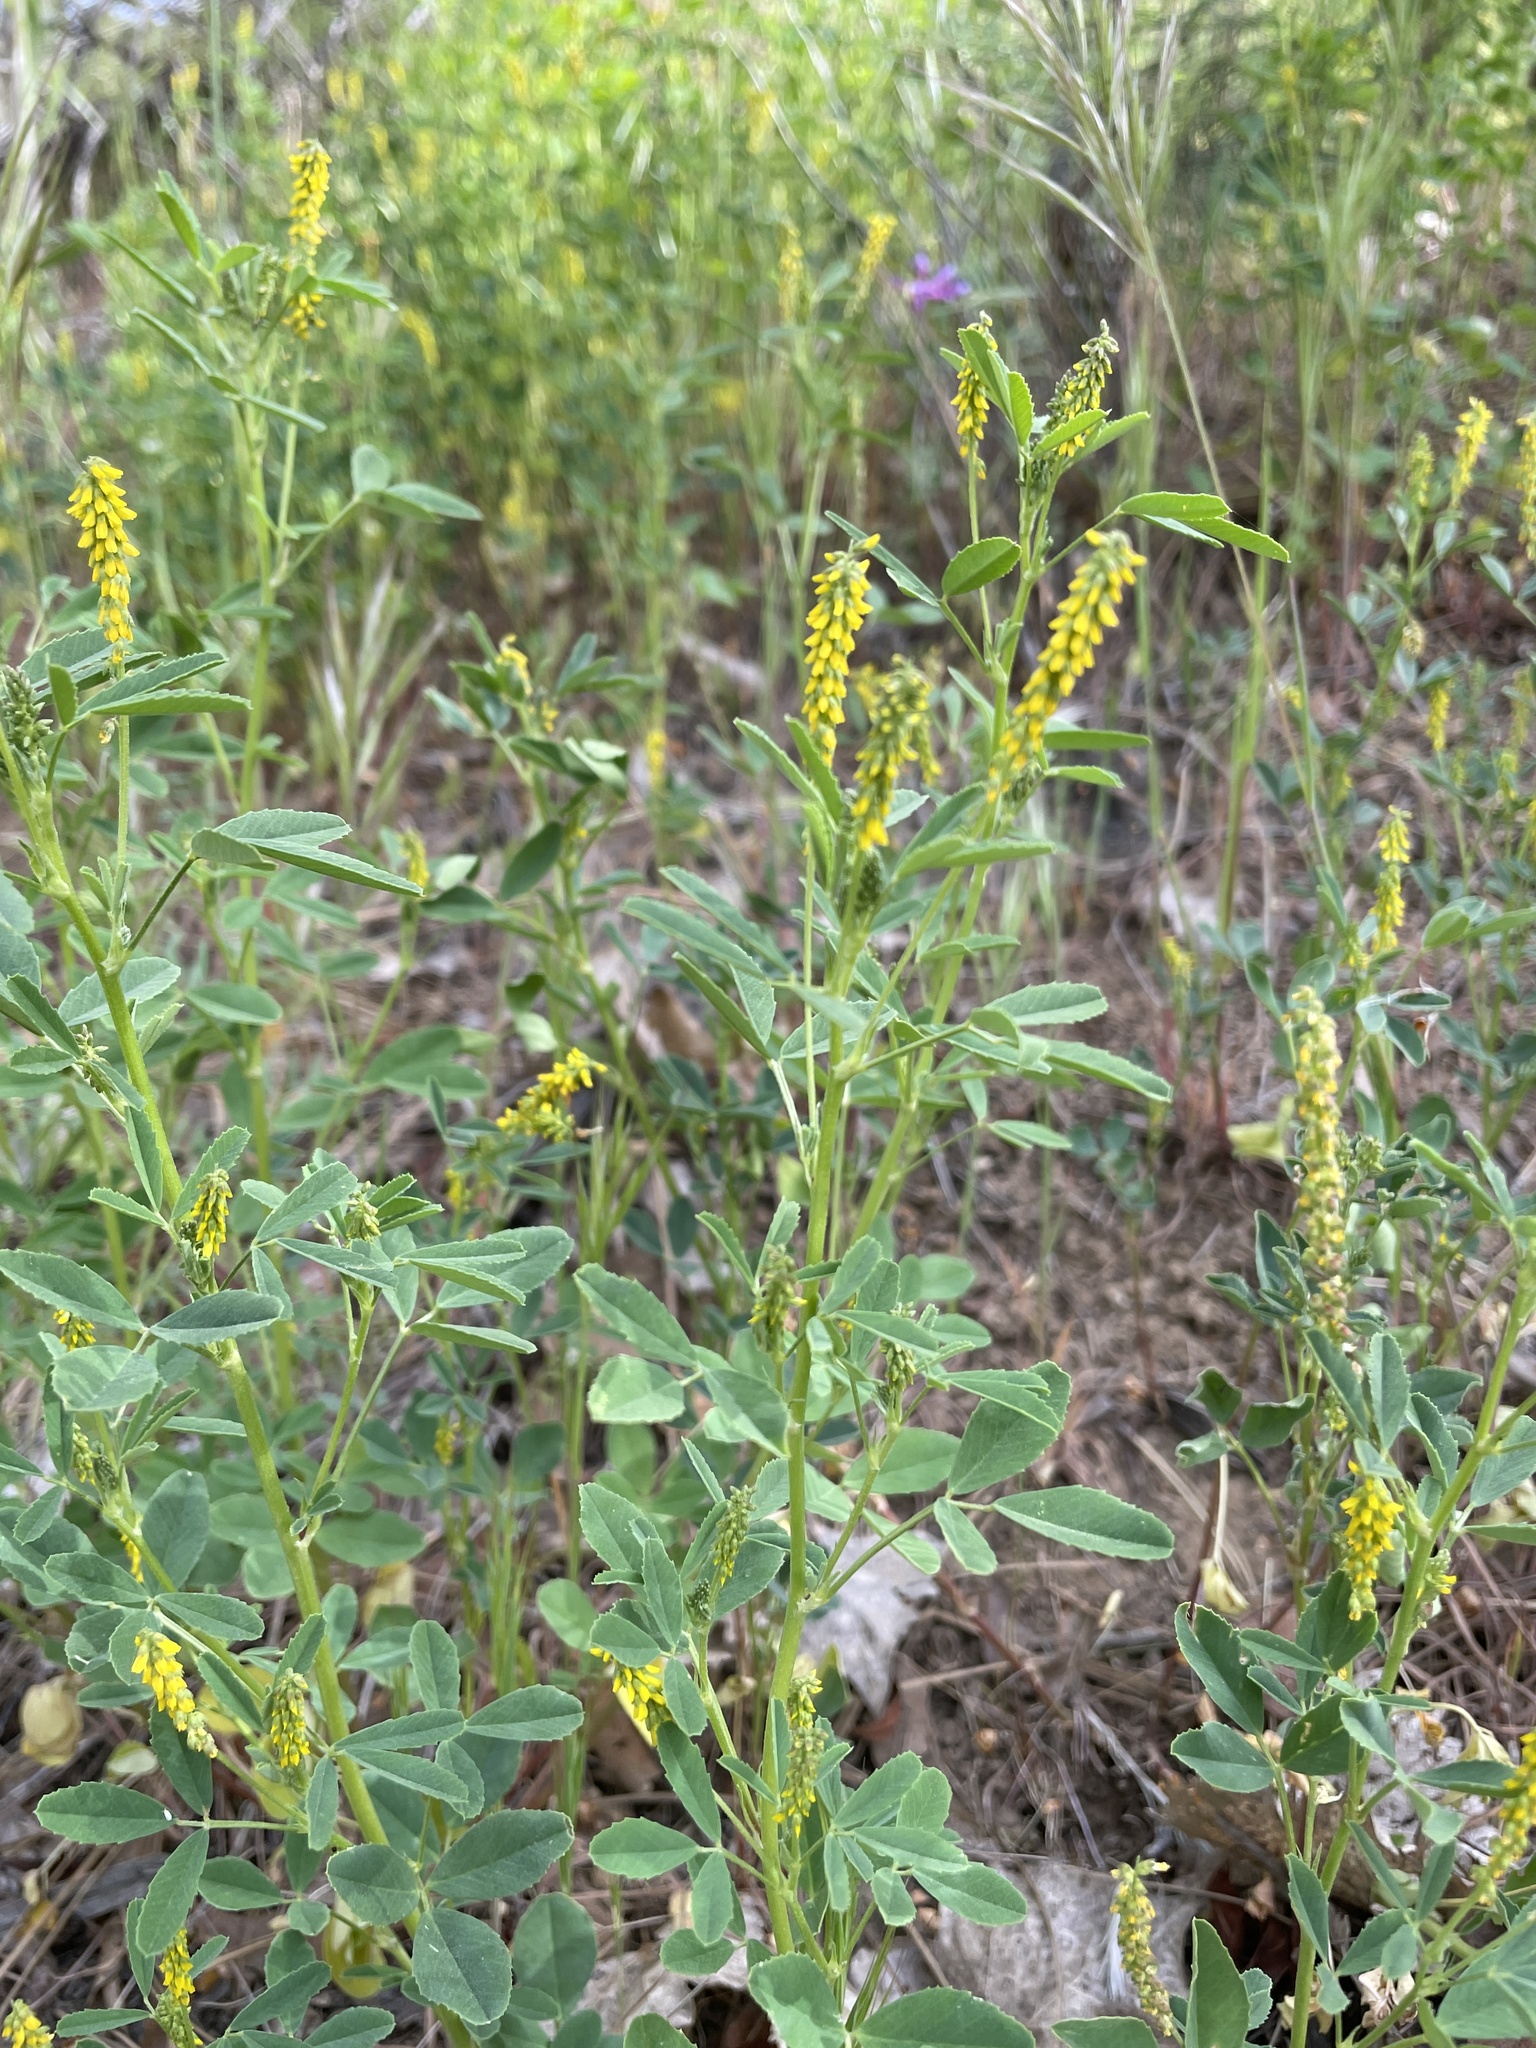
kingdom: Plantae
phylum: Tracheophyta
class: Magnoliopsida
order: Fabales
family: Fabaceae
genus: Melilotus
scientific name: Melilotus indicus
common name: Small melilot
